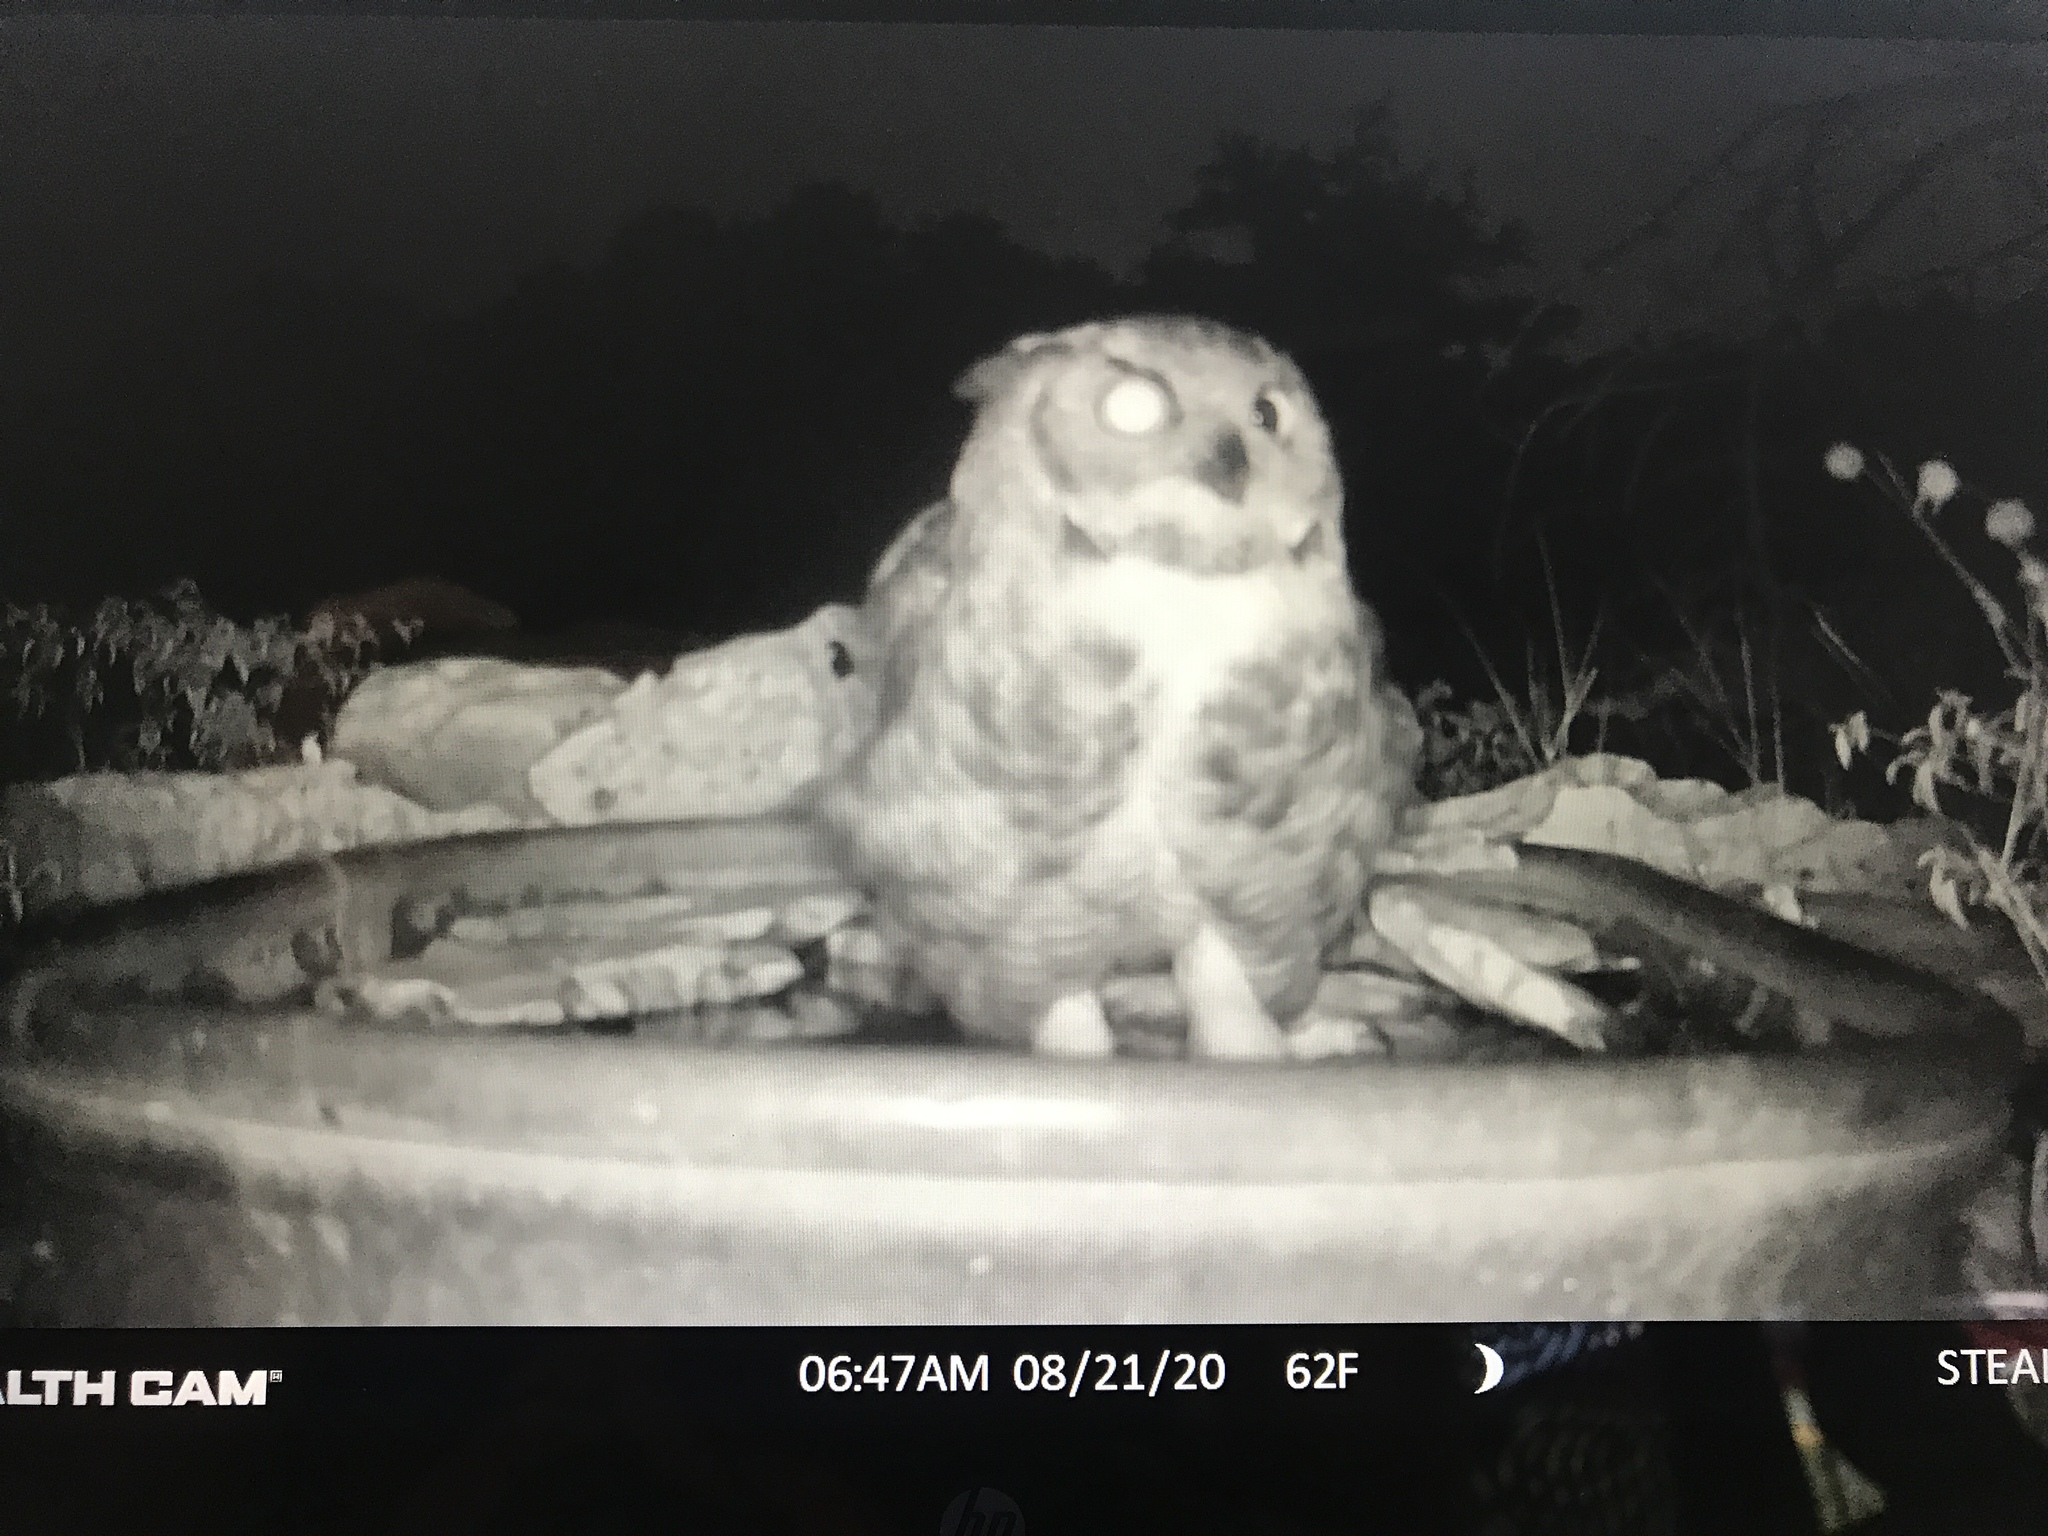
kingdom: Animalia
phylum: Chordata
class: Aves
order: Strigiformes
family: Strigidae
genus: Bubo
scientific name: Bubo virginianus
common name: Great horned owl
